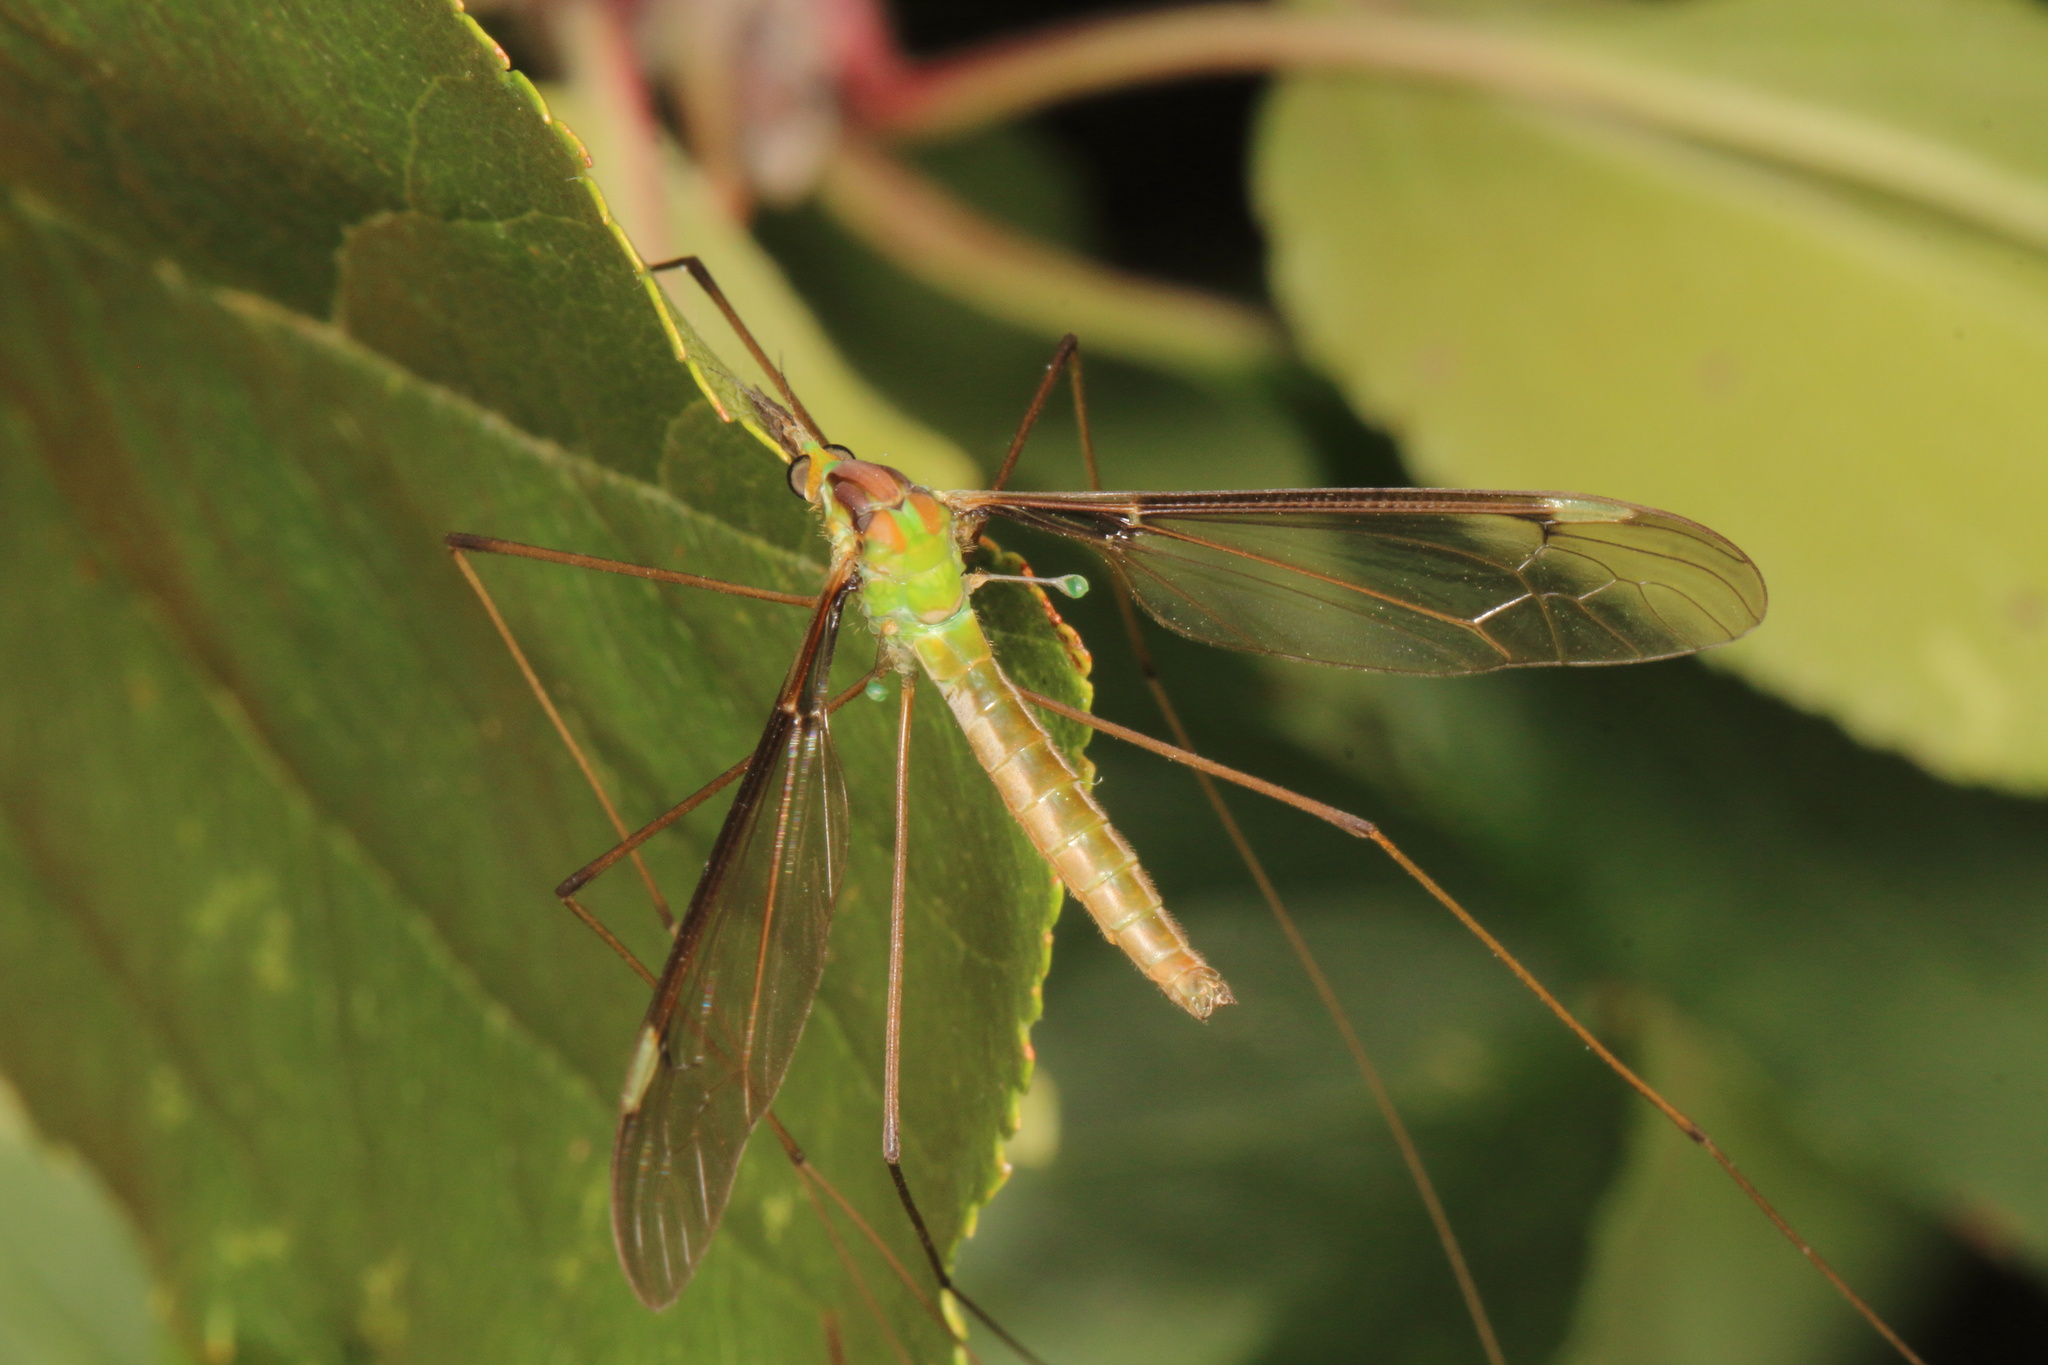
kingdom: Animalia
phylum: Arthropoda
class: Insecta
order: Diptera
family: Tipulidae
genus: Leptotarsus
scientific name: Leptotarsus albistigma
